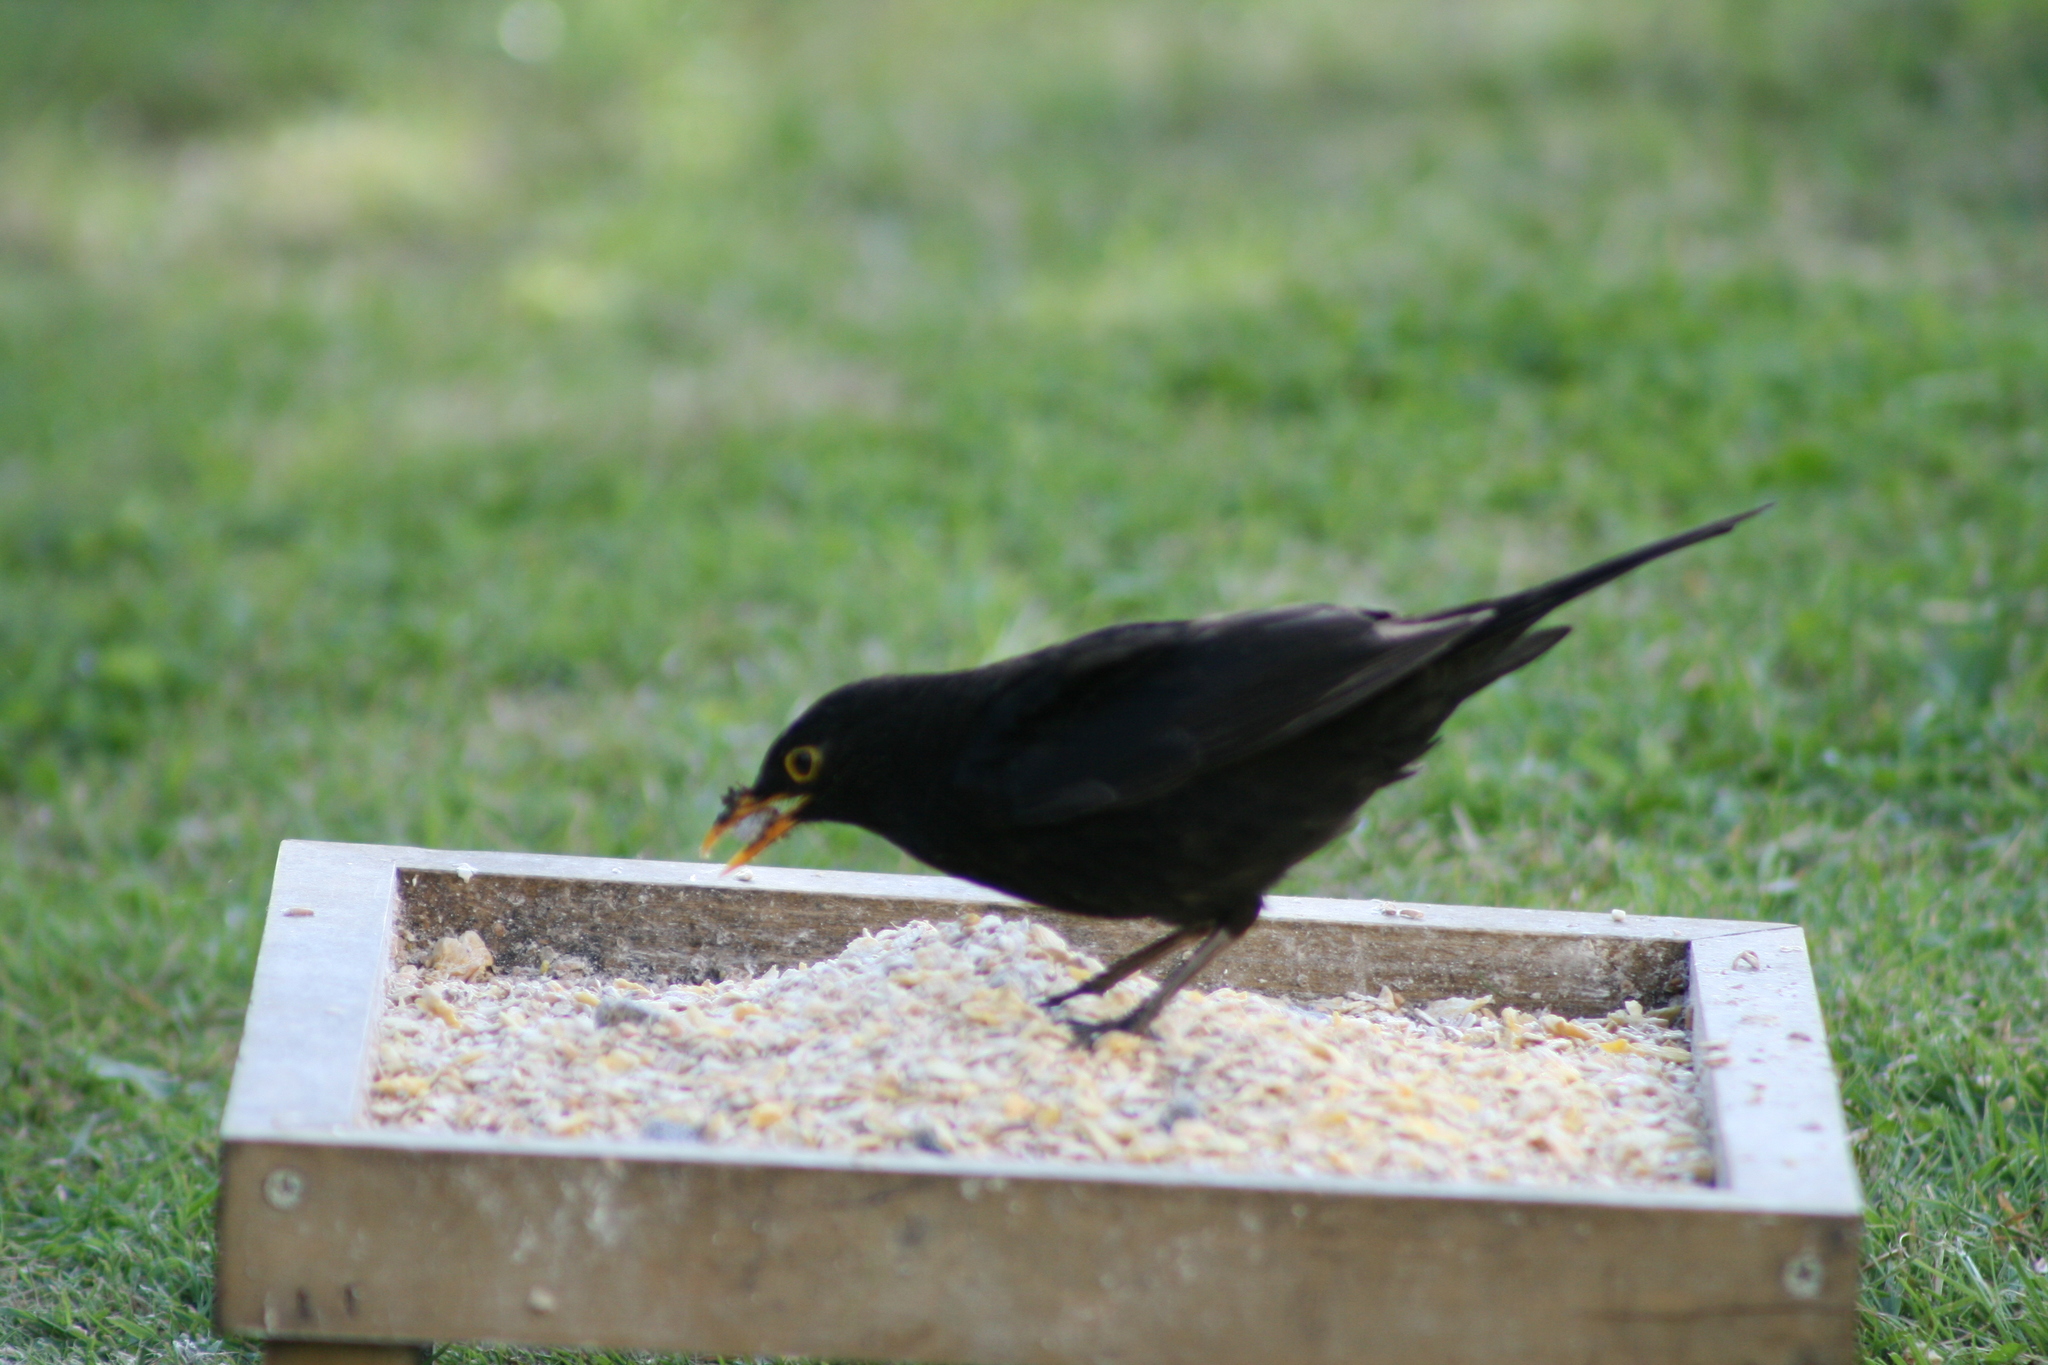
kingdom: Animalia
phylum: Chordata
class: Aves
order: Passeriformes
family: Turdidae
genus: Turdus
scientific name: Turdus merula
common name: Common blackbird
